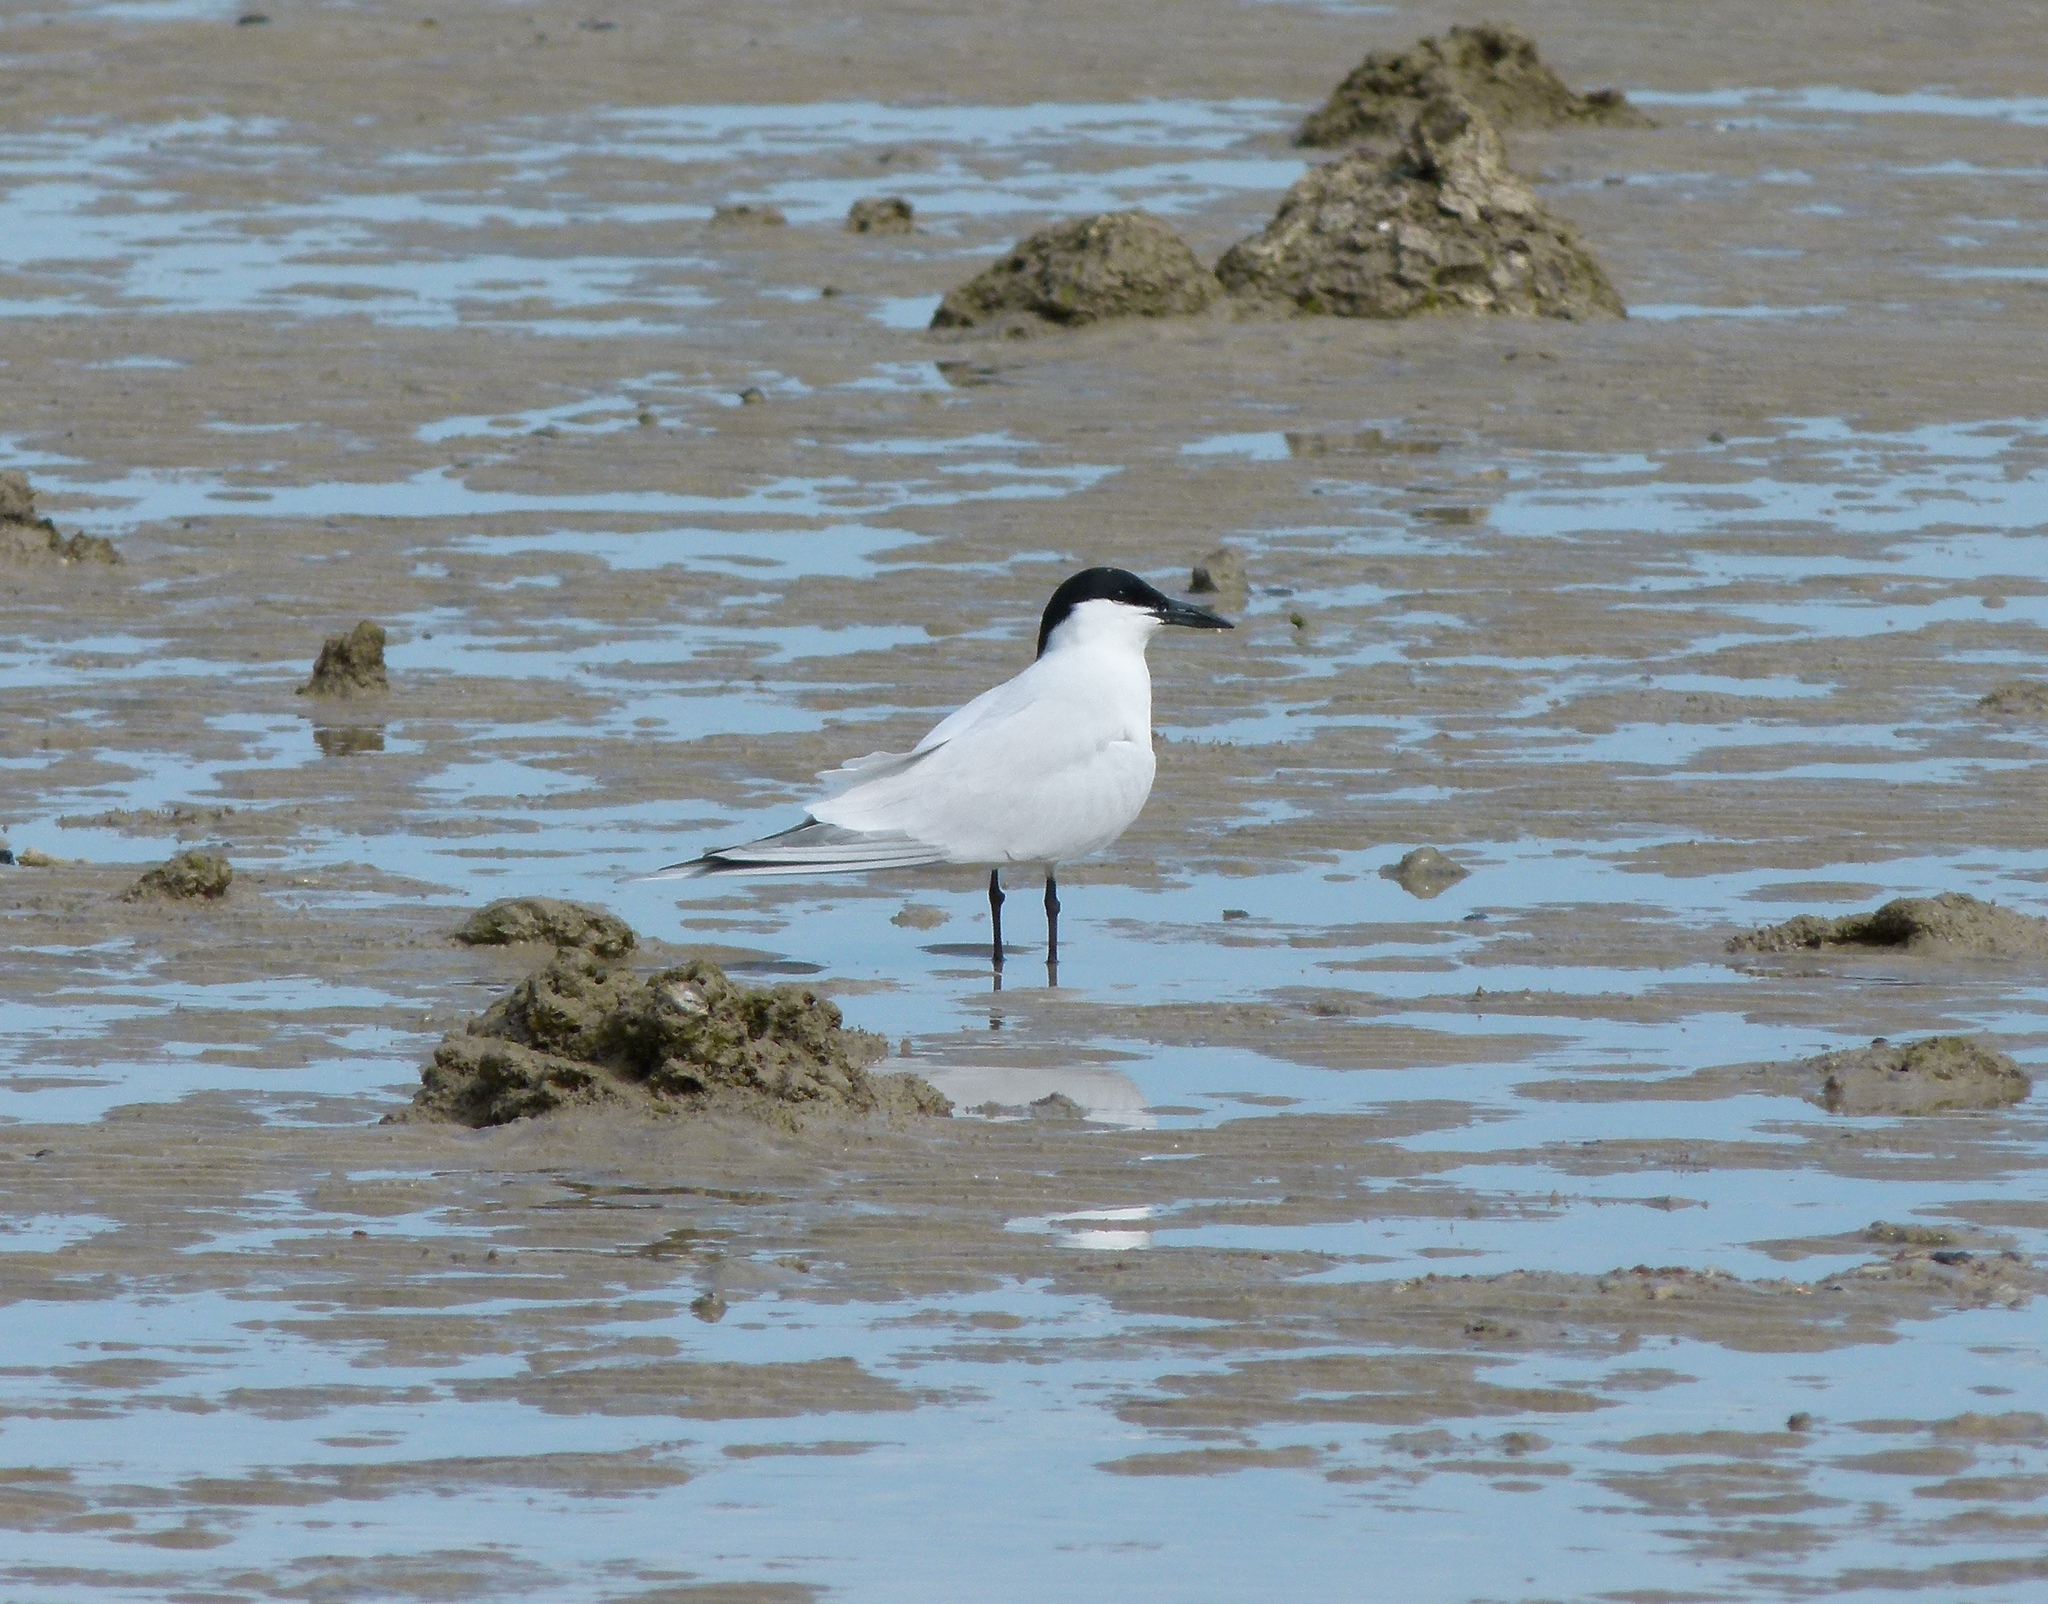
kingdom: Animalia
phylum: Chordata
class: Aves
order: Charadriiformes
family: Laridae
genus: Gelochelidon
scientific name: Gelochelidon macrotarsa
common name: Australian tern
